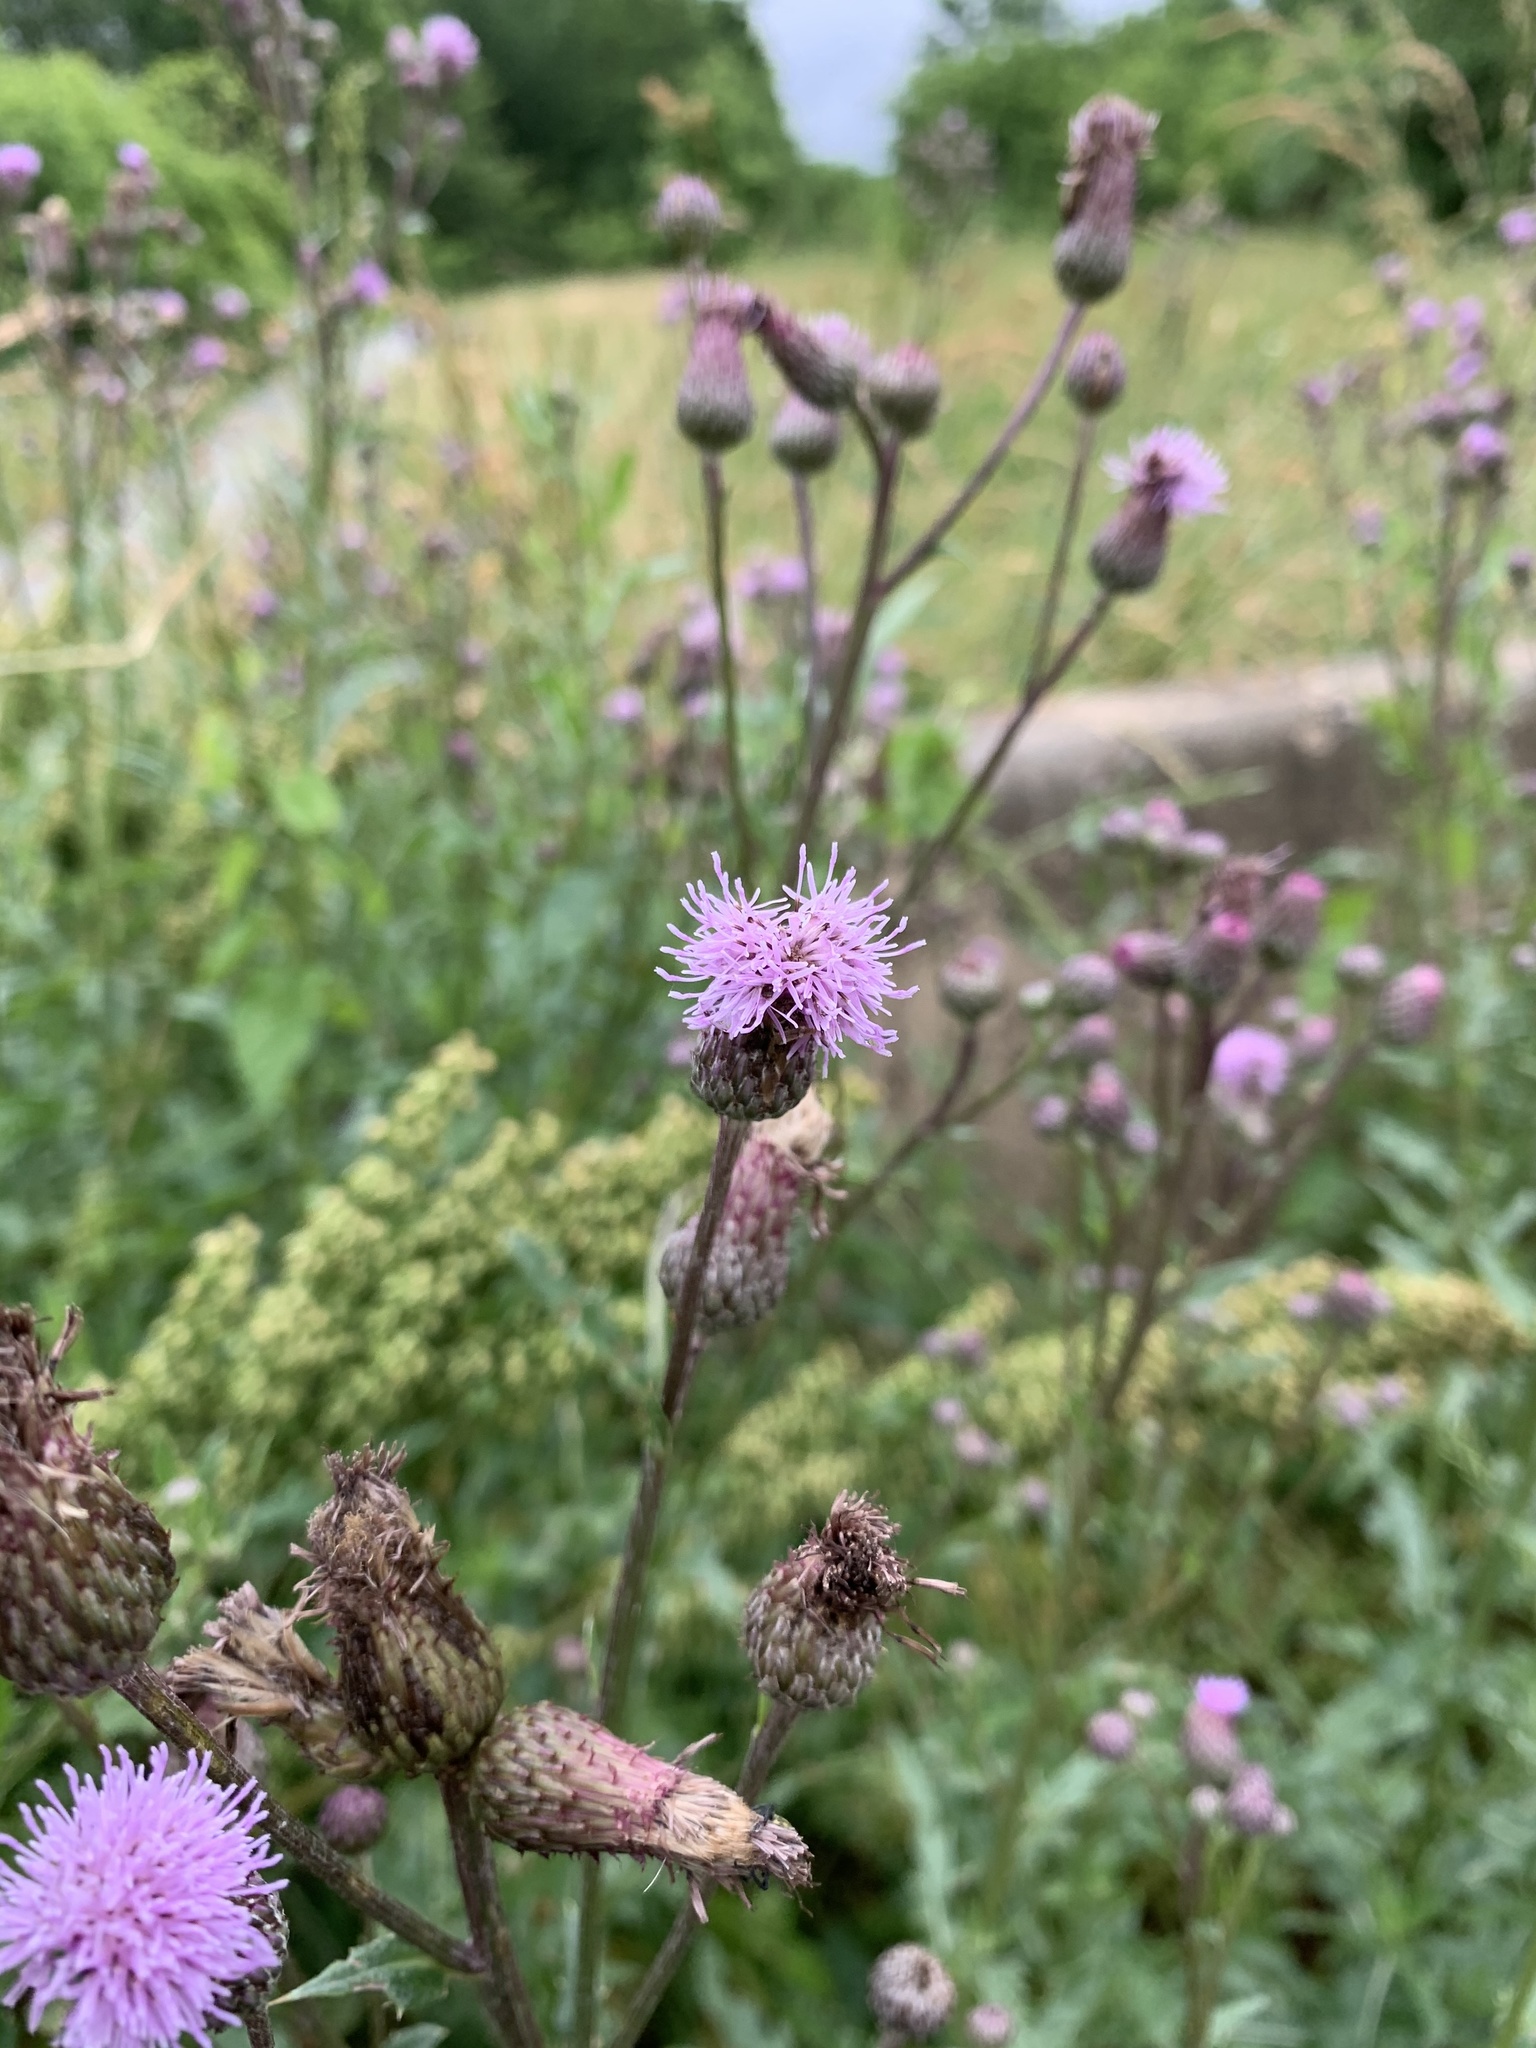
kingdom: Plantae
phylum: Tracheophyta
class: Magnoliopsida
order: Asterales
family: Asteraceae
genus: Cirsium
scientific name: Cirsium arvense
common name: Creeping thistle
